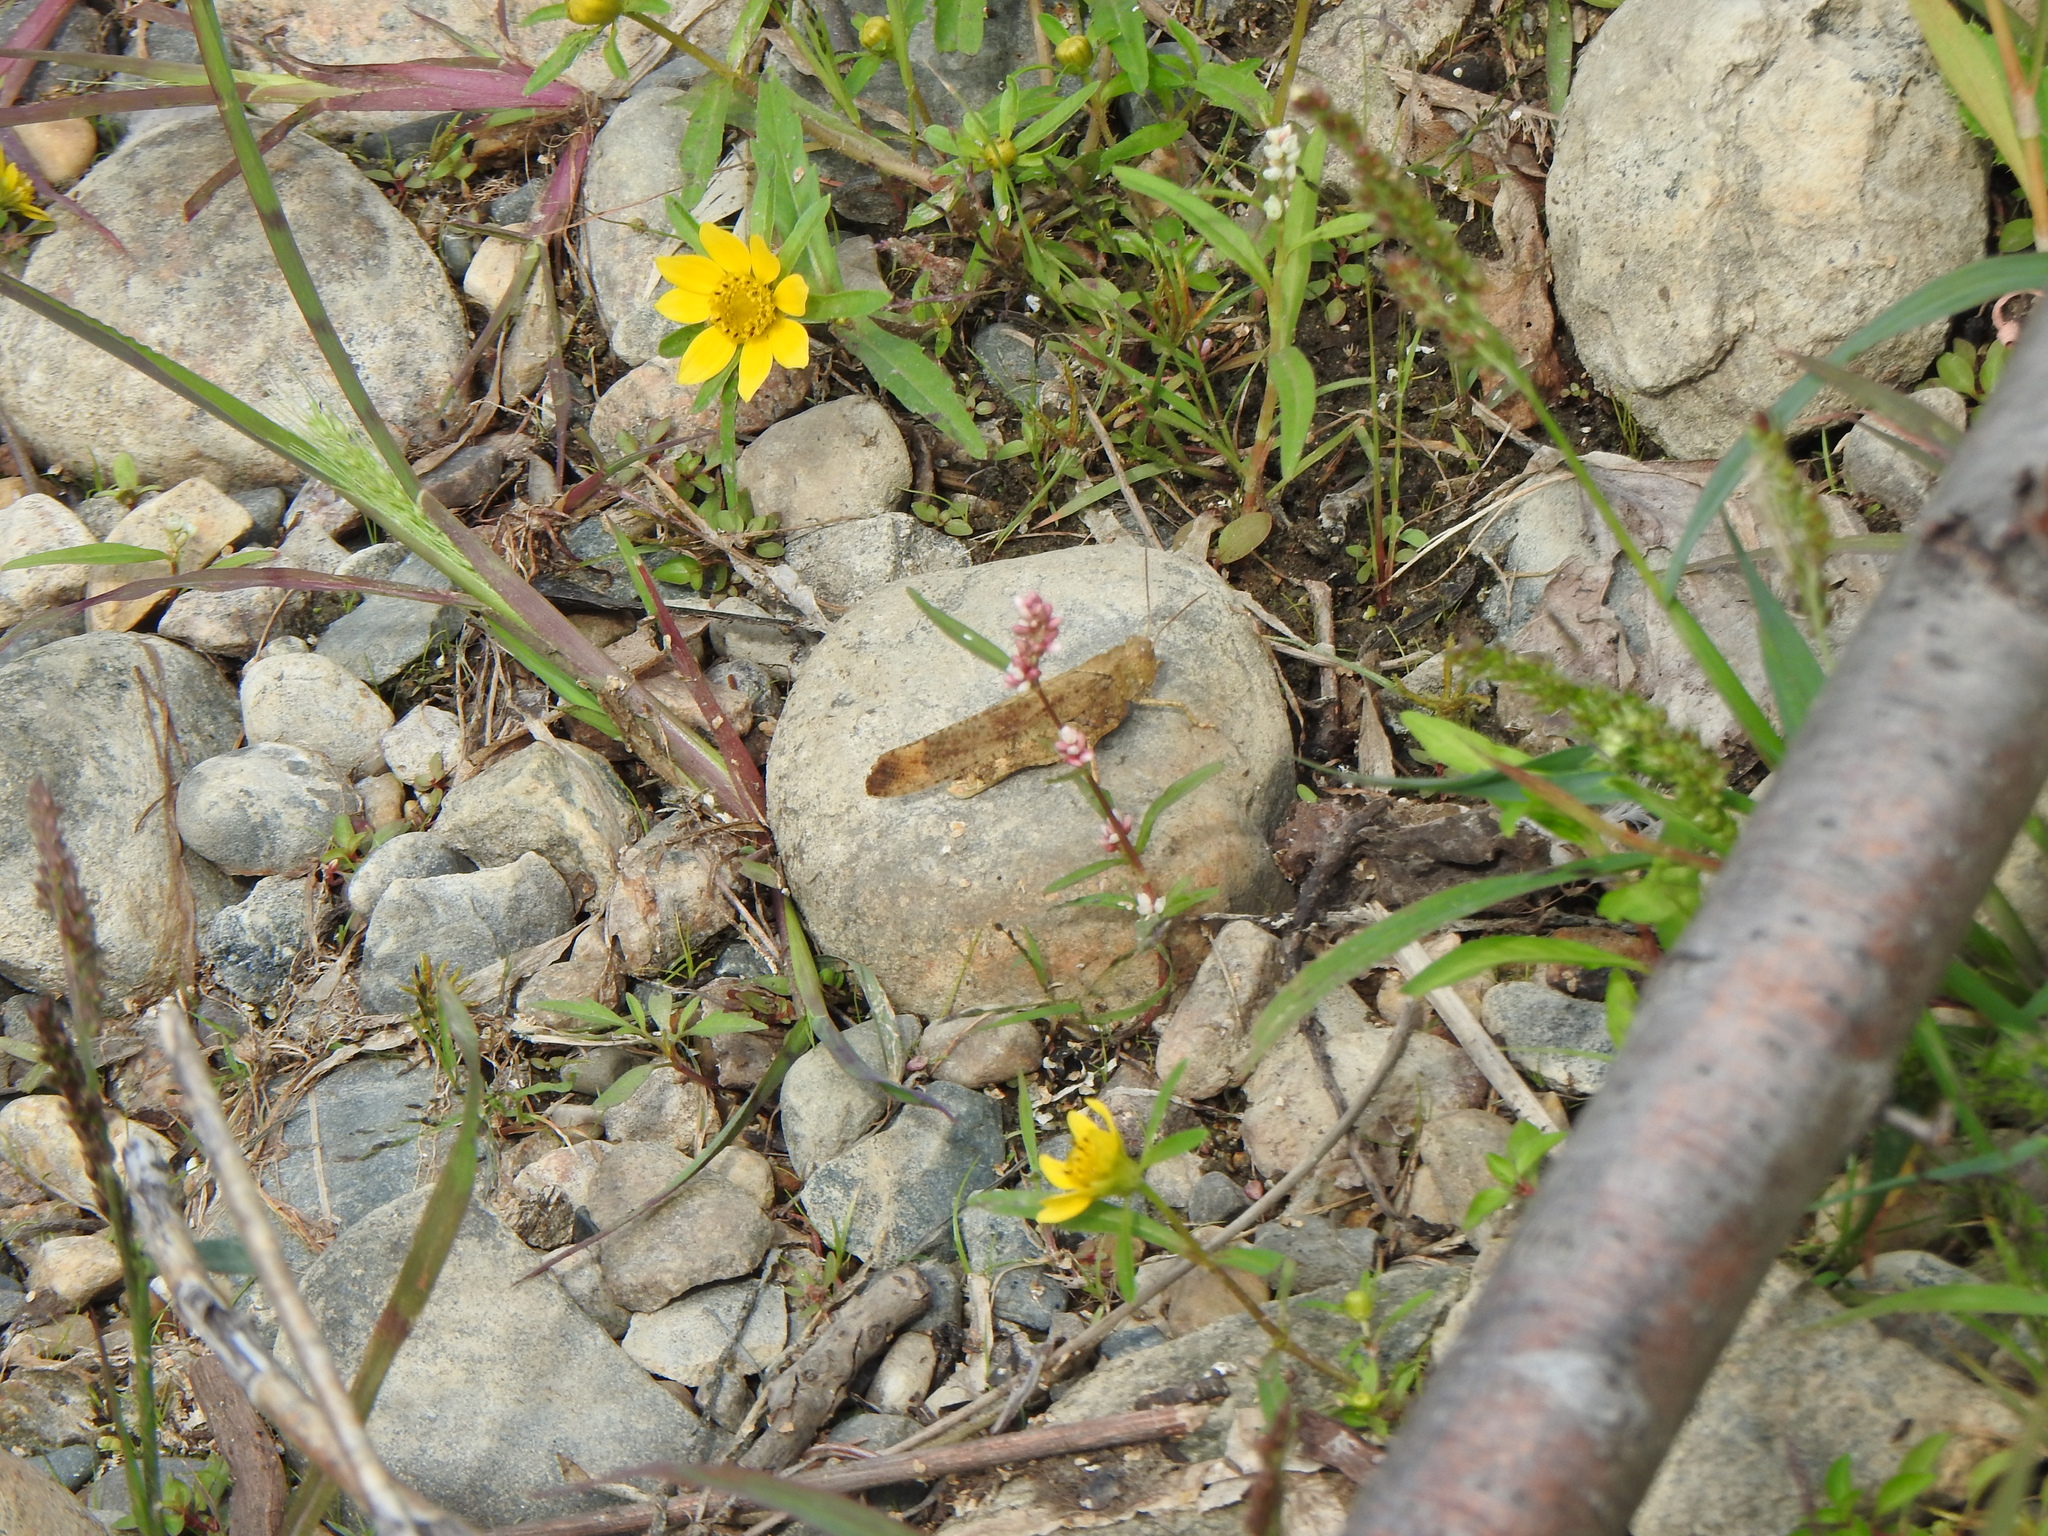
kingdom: Animalia
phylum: Arthropoda
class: Insecta
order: Orthoptera
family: Acrididae
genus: Dissosteira
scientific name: Dissosteira carolina
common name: Carolina grasshopper
